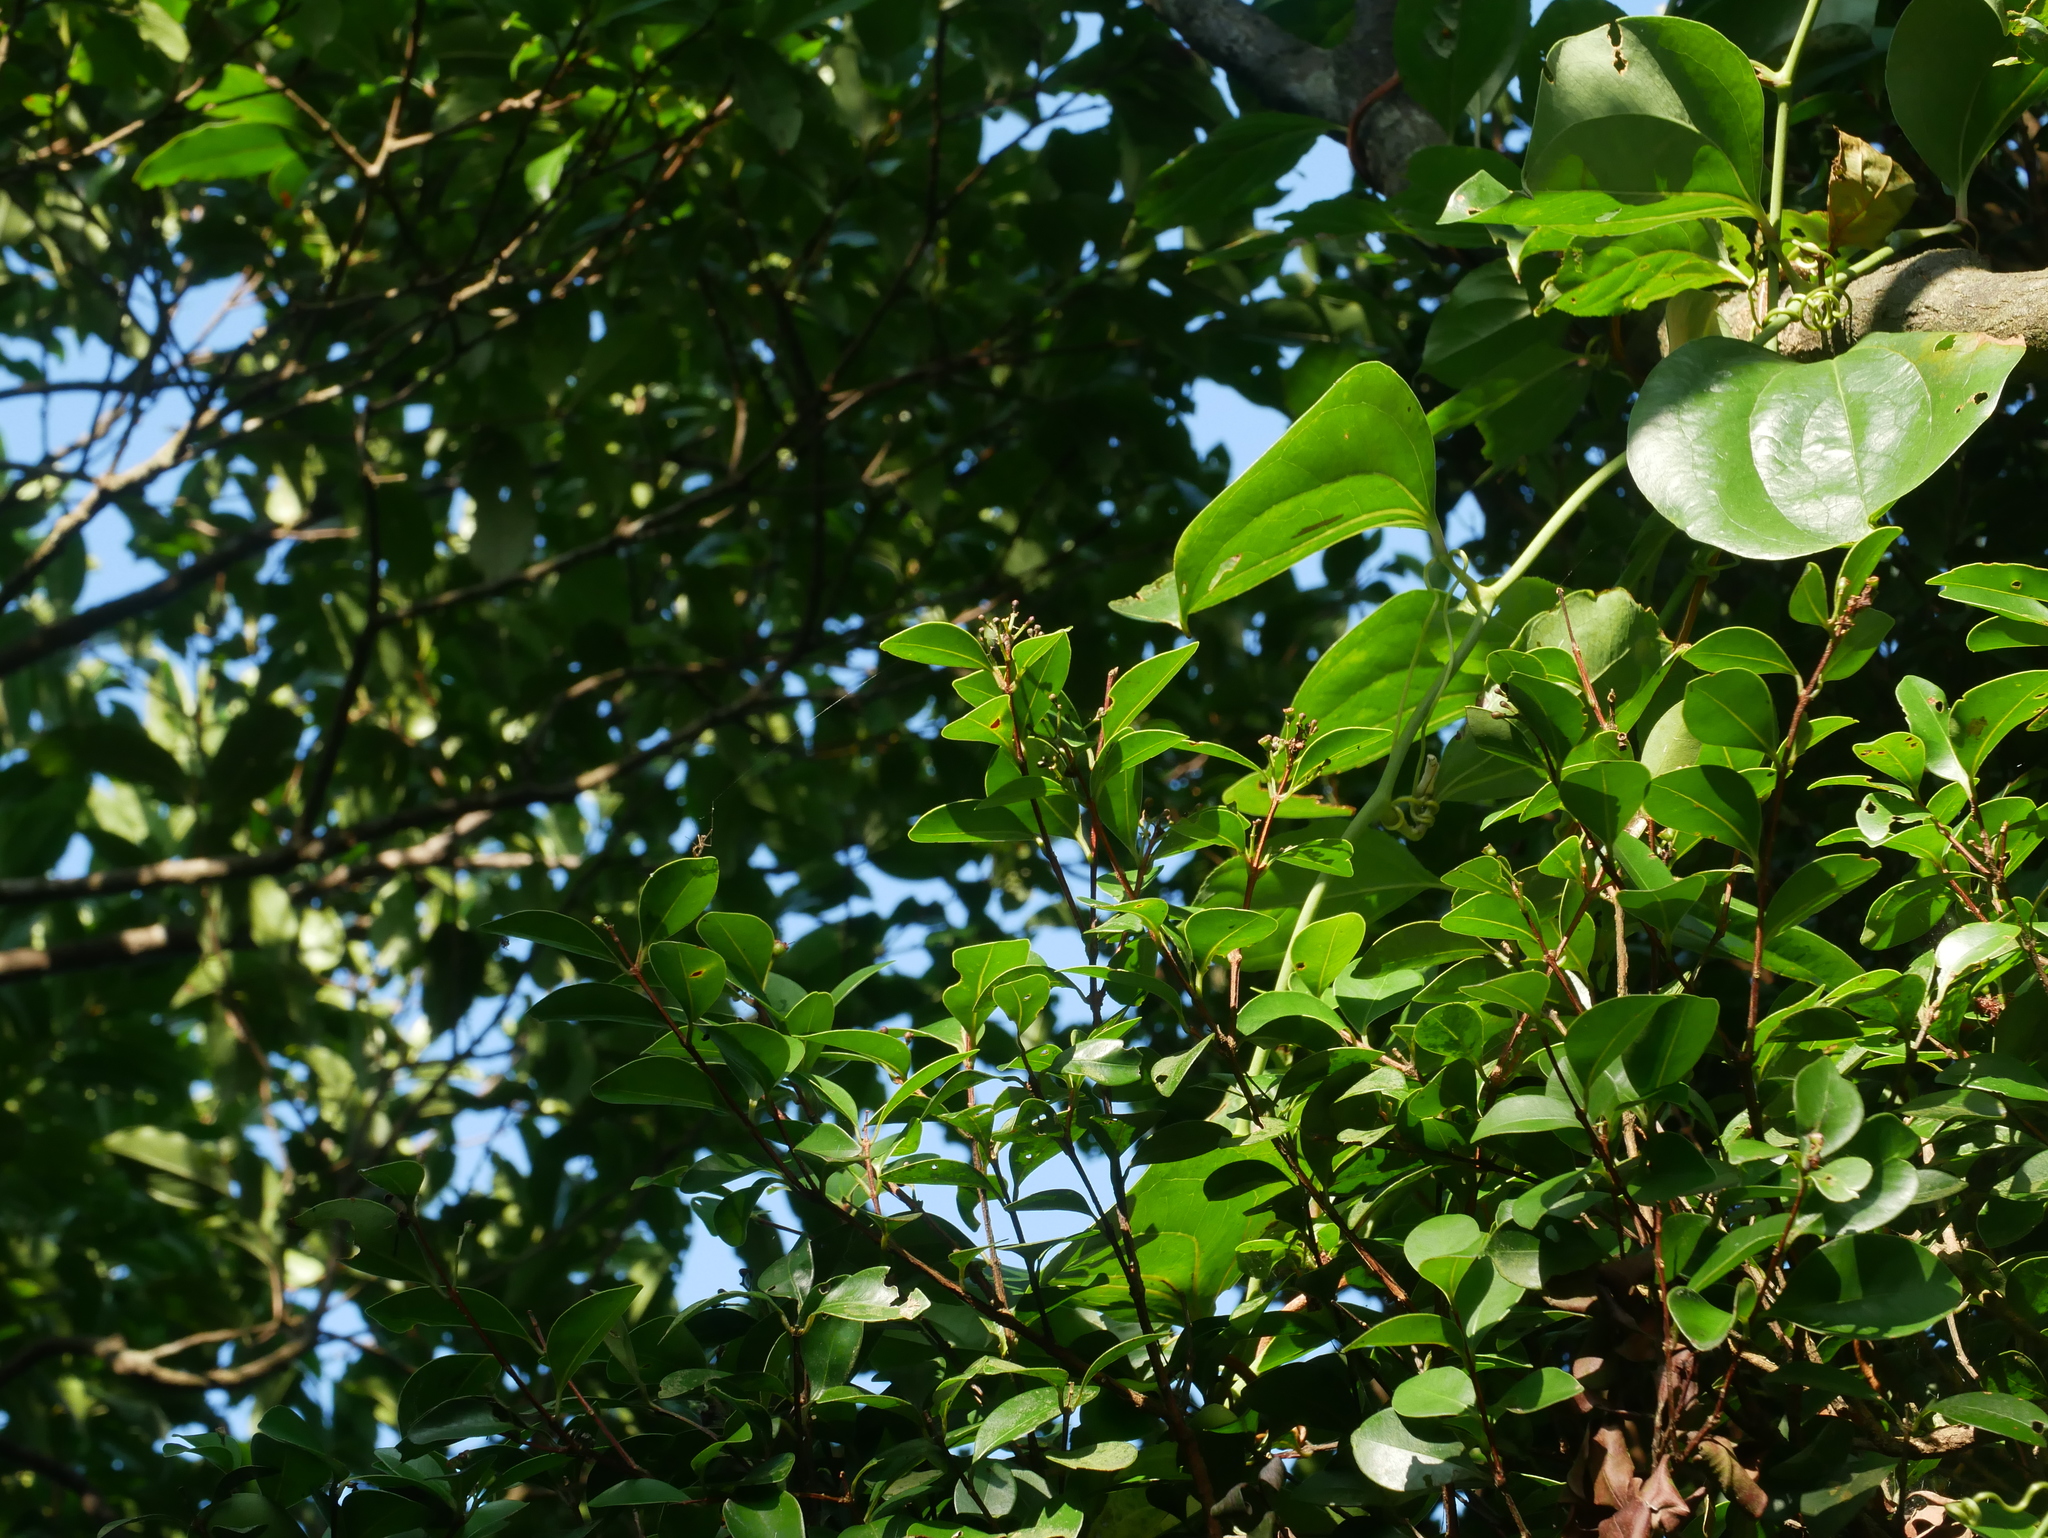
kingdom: Plantae
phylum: Tracheophyta
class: Magnoliopsida
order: Myrtales
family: Myrtaceae
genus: Syzygium
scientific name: Syzygium elliptifolium
